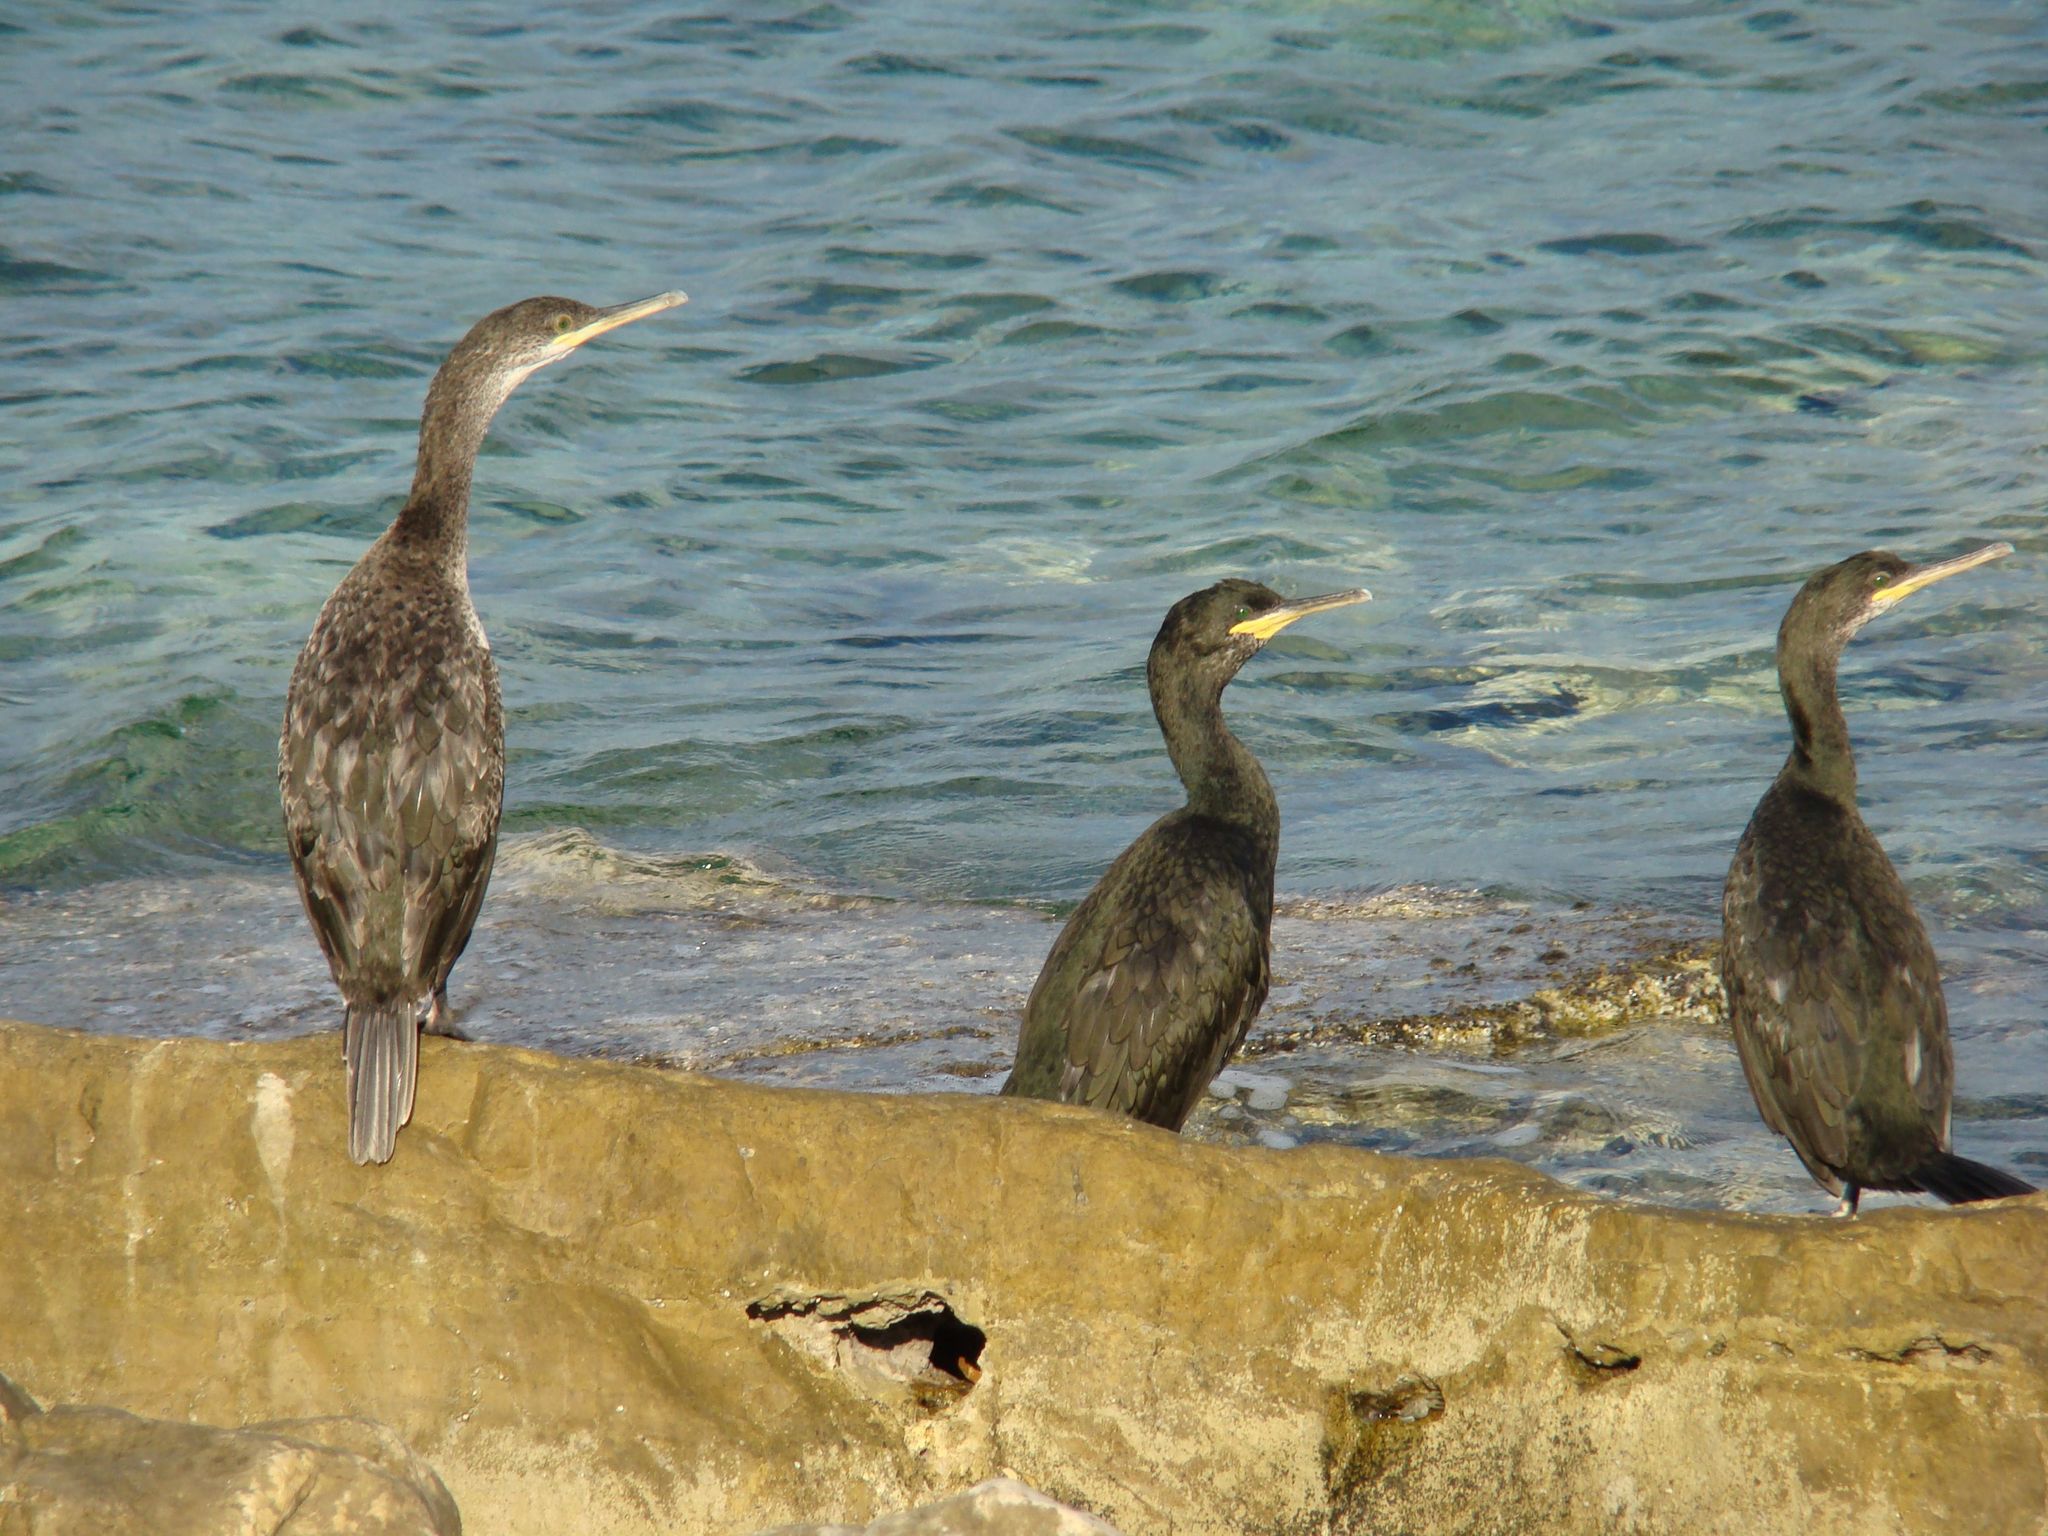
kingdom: Animalia
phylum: Chordata
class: Aves
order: Suliformes
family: Phalacrocoracidae
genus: Phalacrocorax
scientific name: Phalacrocorax aristotelis
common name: European shag
